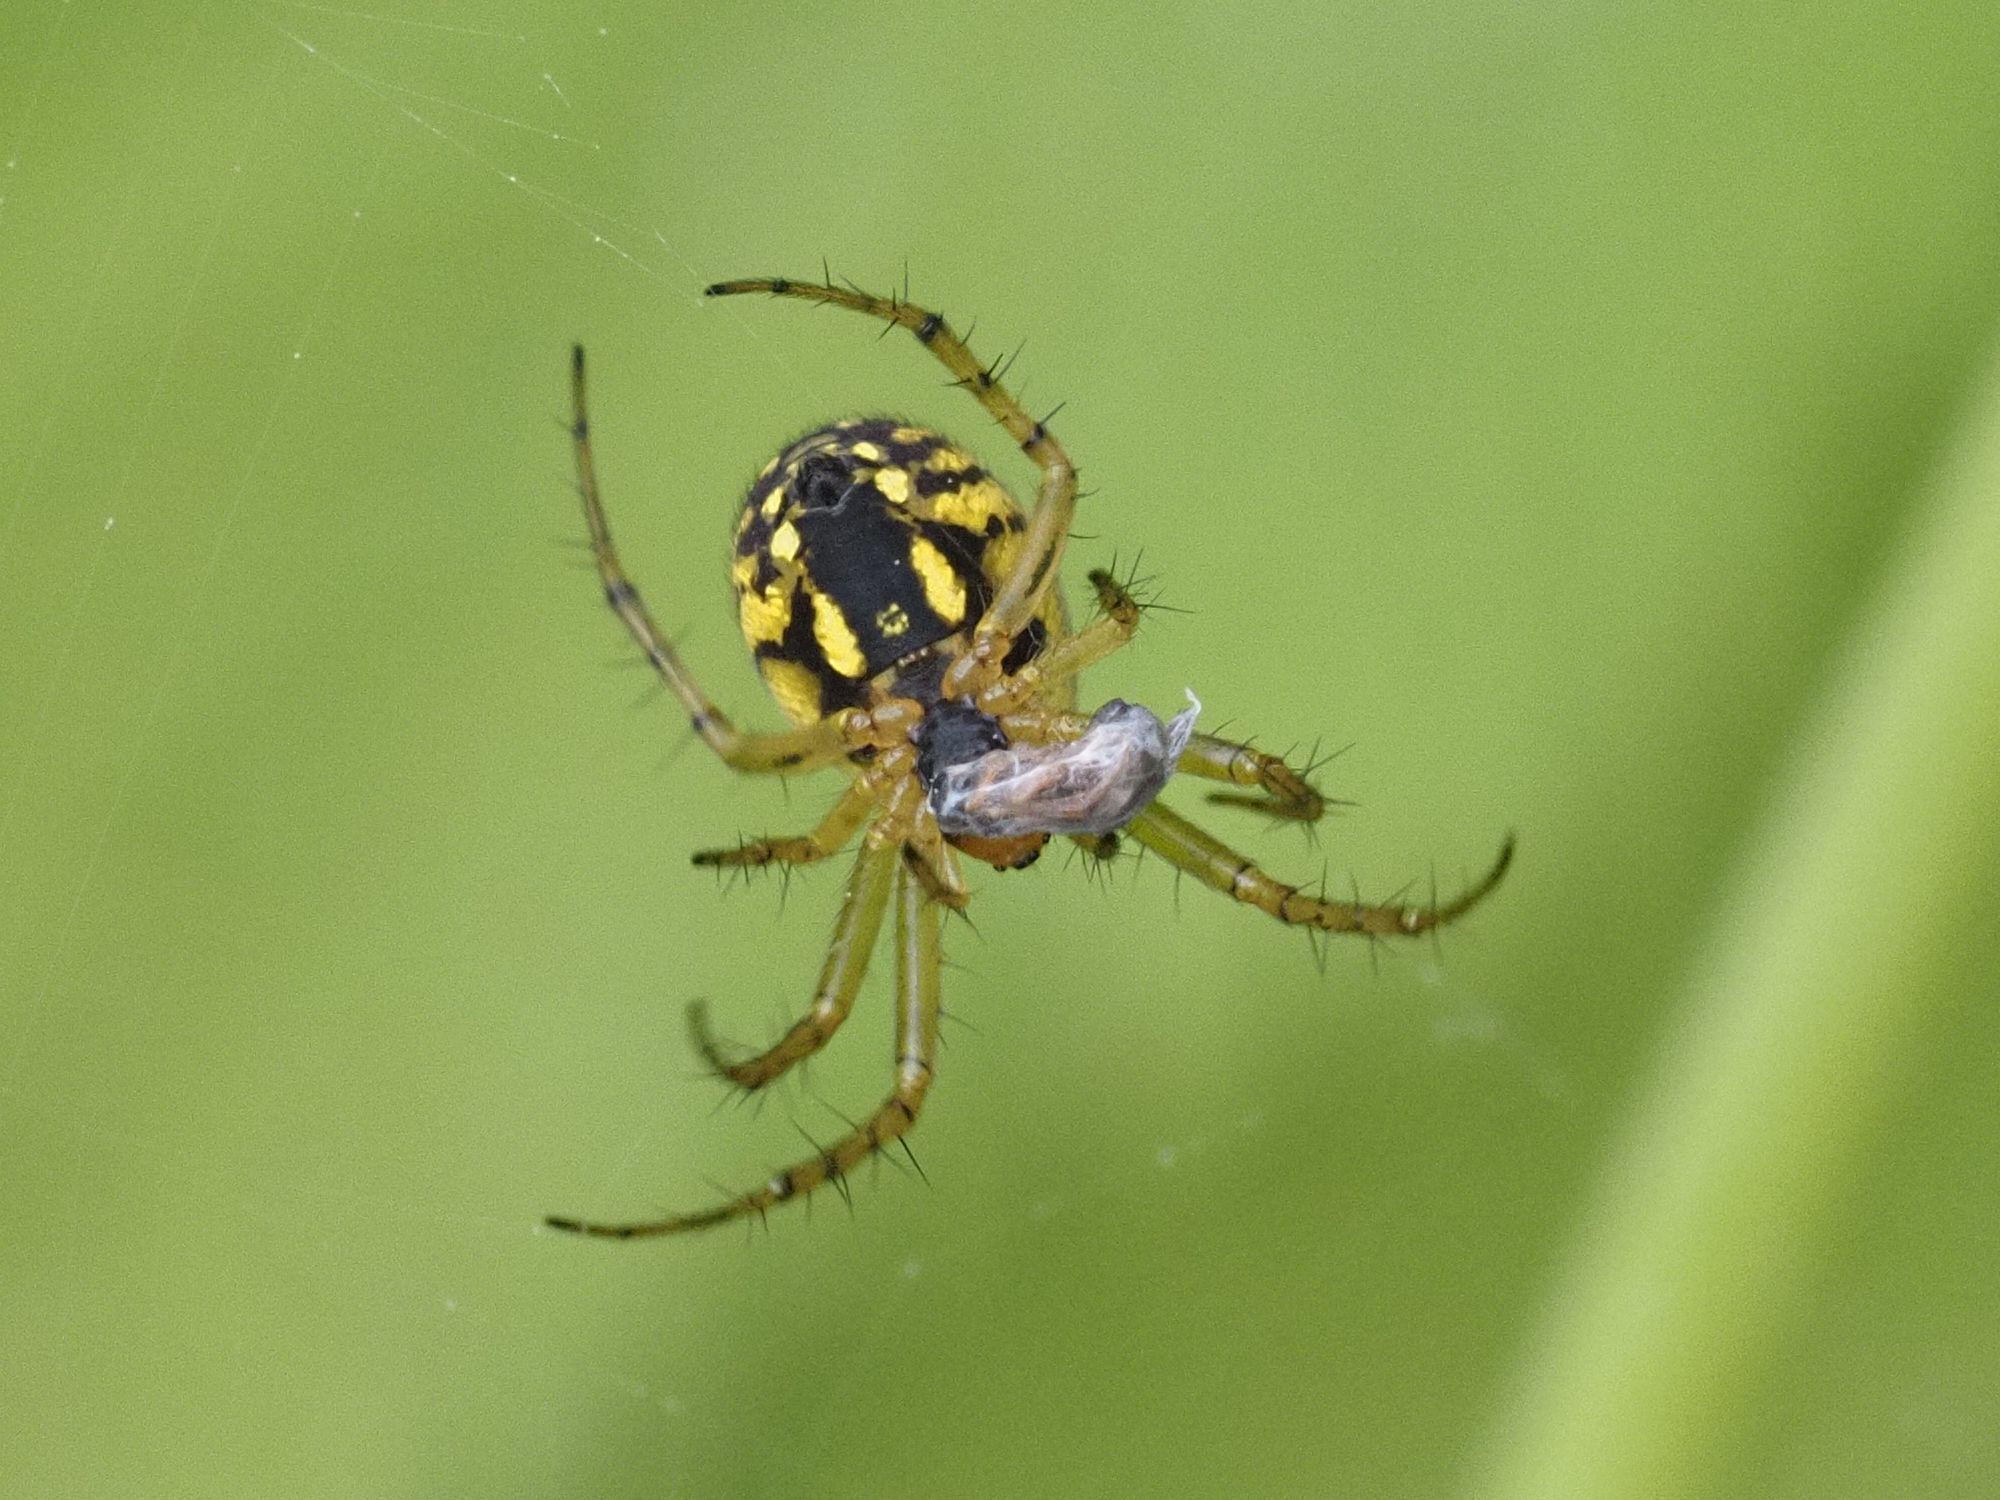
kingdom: Animalia
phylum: Arthropoda
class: Arachnida
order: Araneae
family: Araneidae
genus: Mangora
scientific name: Mangora acalypha
